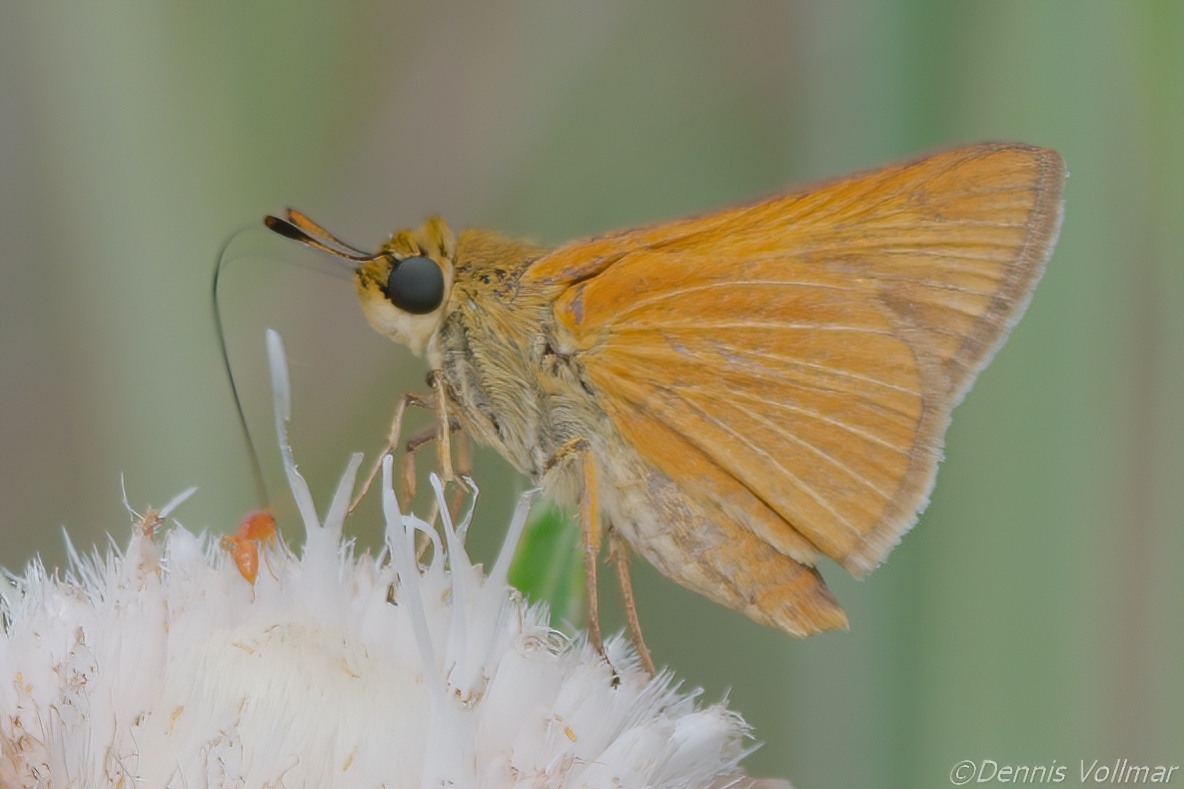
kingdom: Animalia
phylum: Arthropoda
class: Insecta
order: Lepidoptera
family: Hesperiidae
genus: Euphyes
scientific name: Euphyes berryi
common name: Berry's skipper
